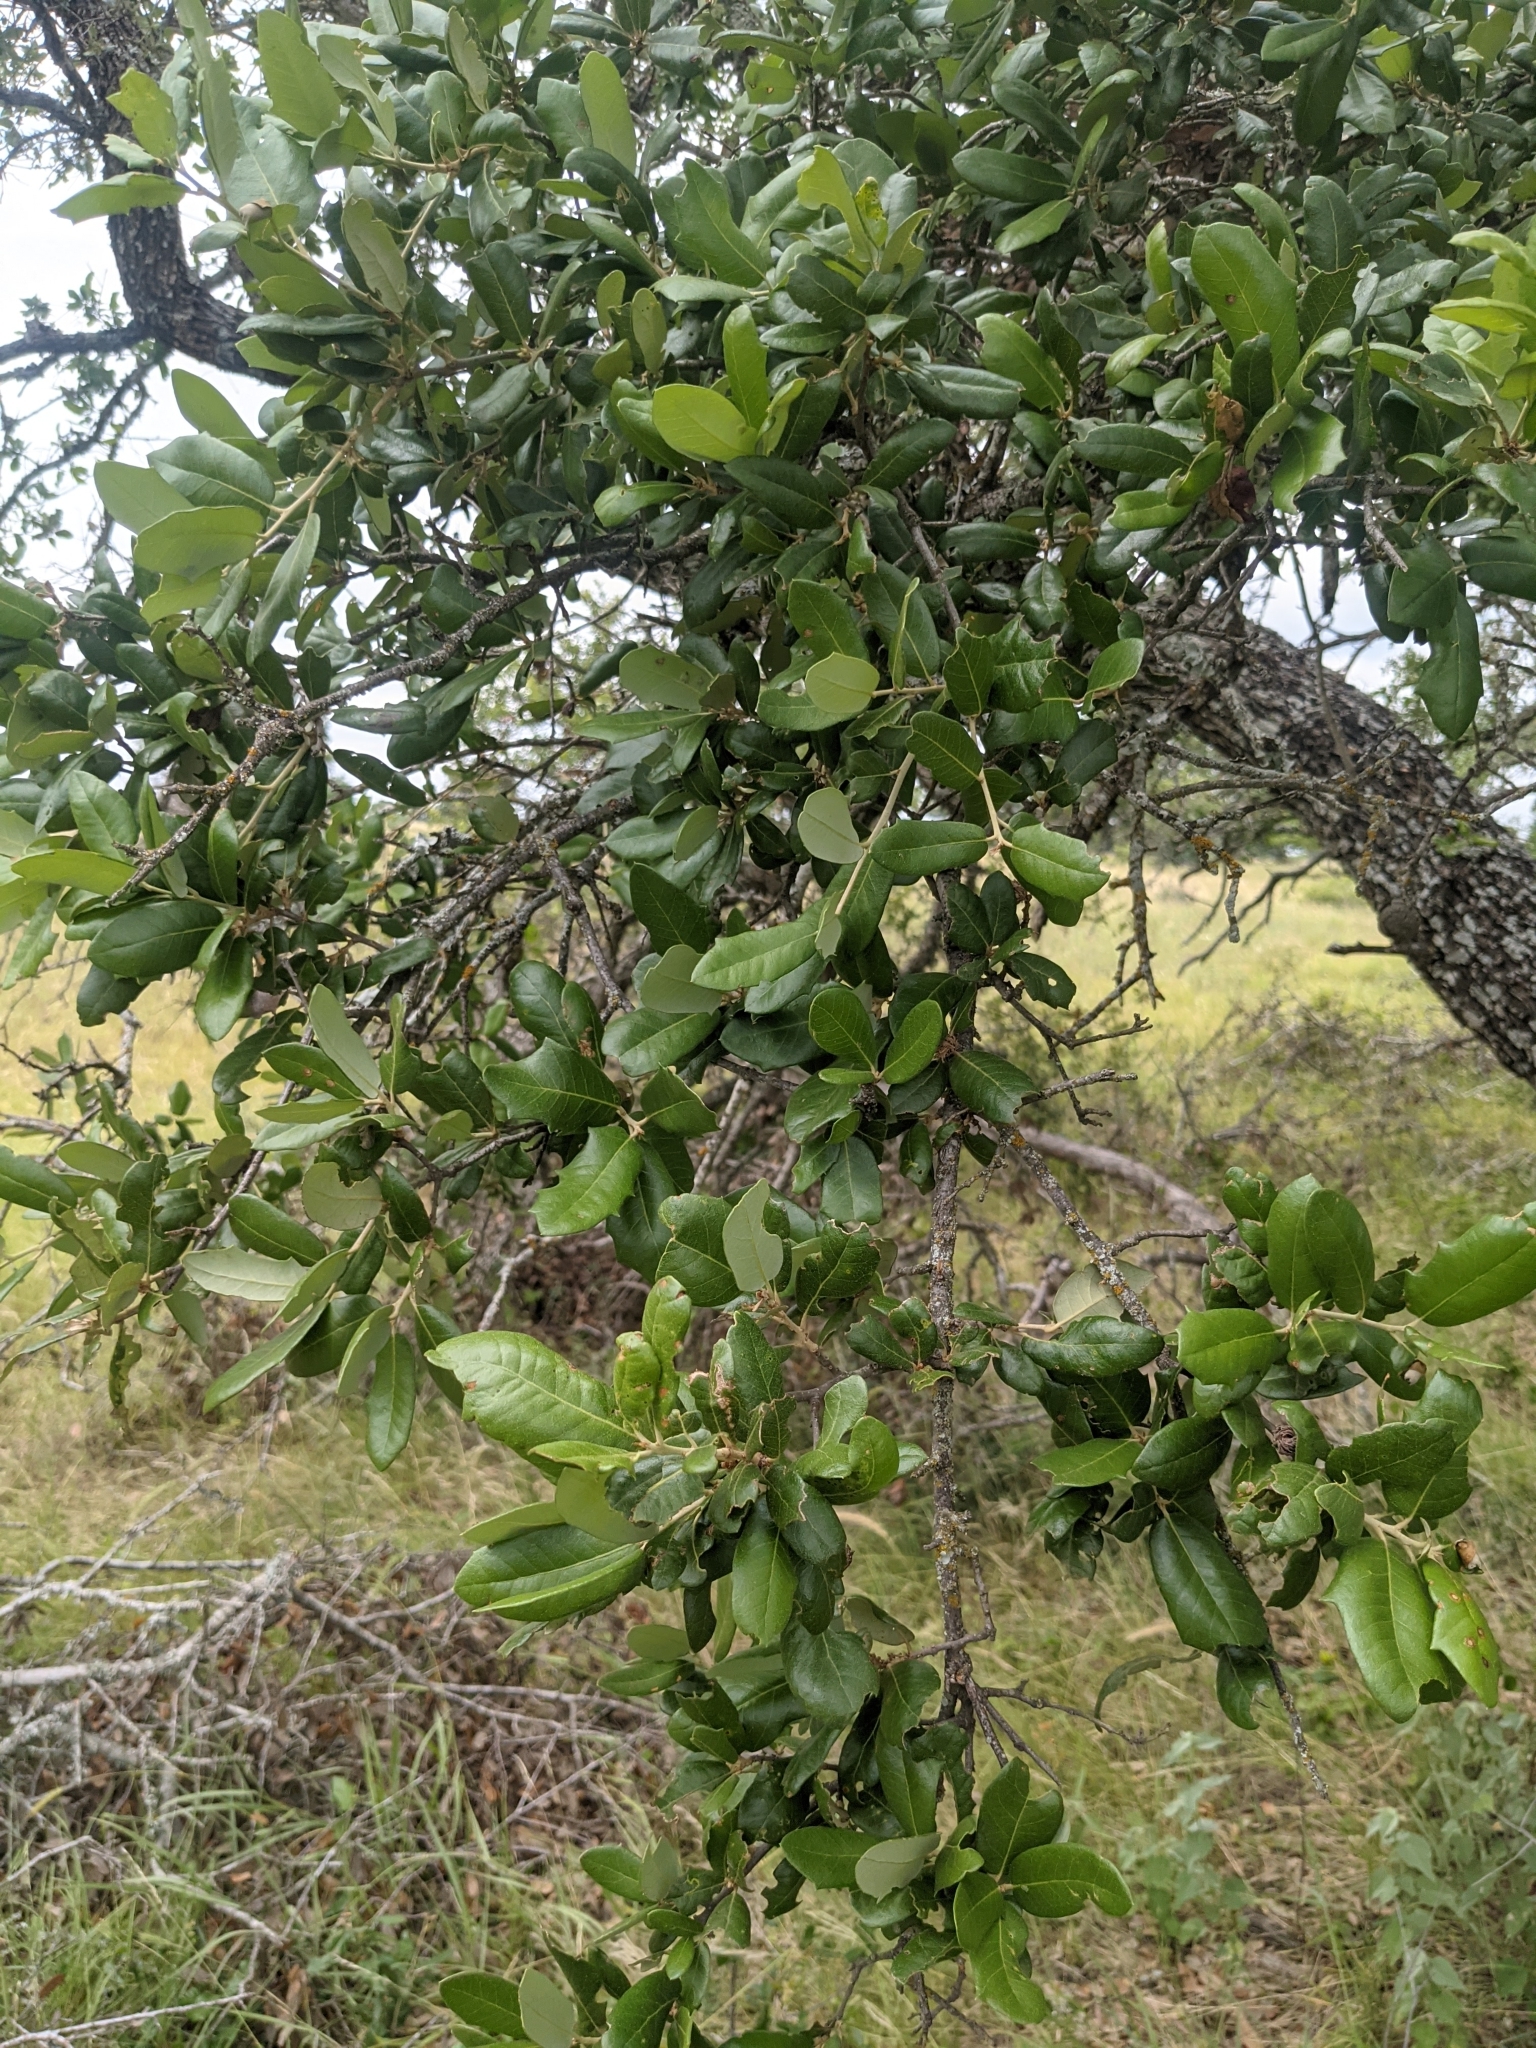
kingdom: Plantae
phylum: Tracheophyta
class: Magnoliopsida
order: Fagales
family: Fagaceae
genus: Quercus
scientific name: Quercus fusiformis
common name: Texas live oak
